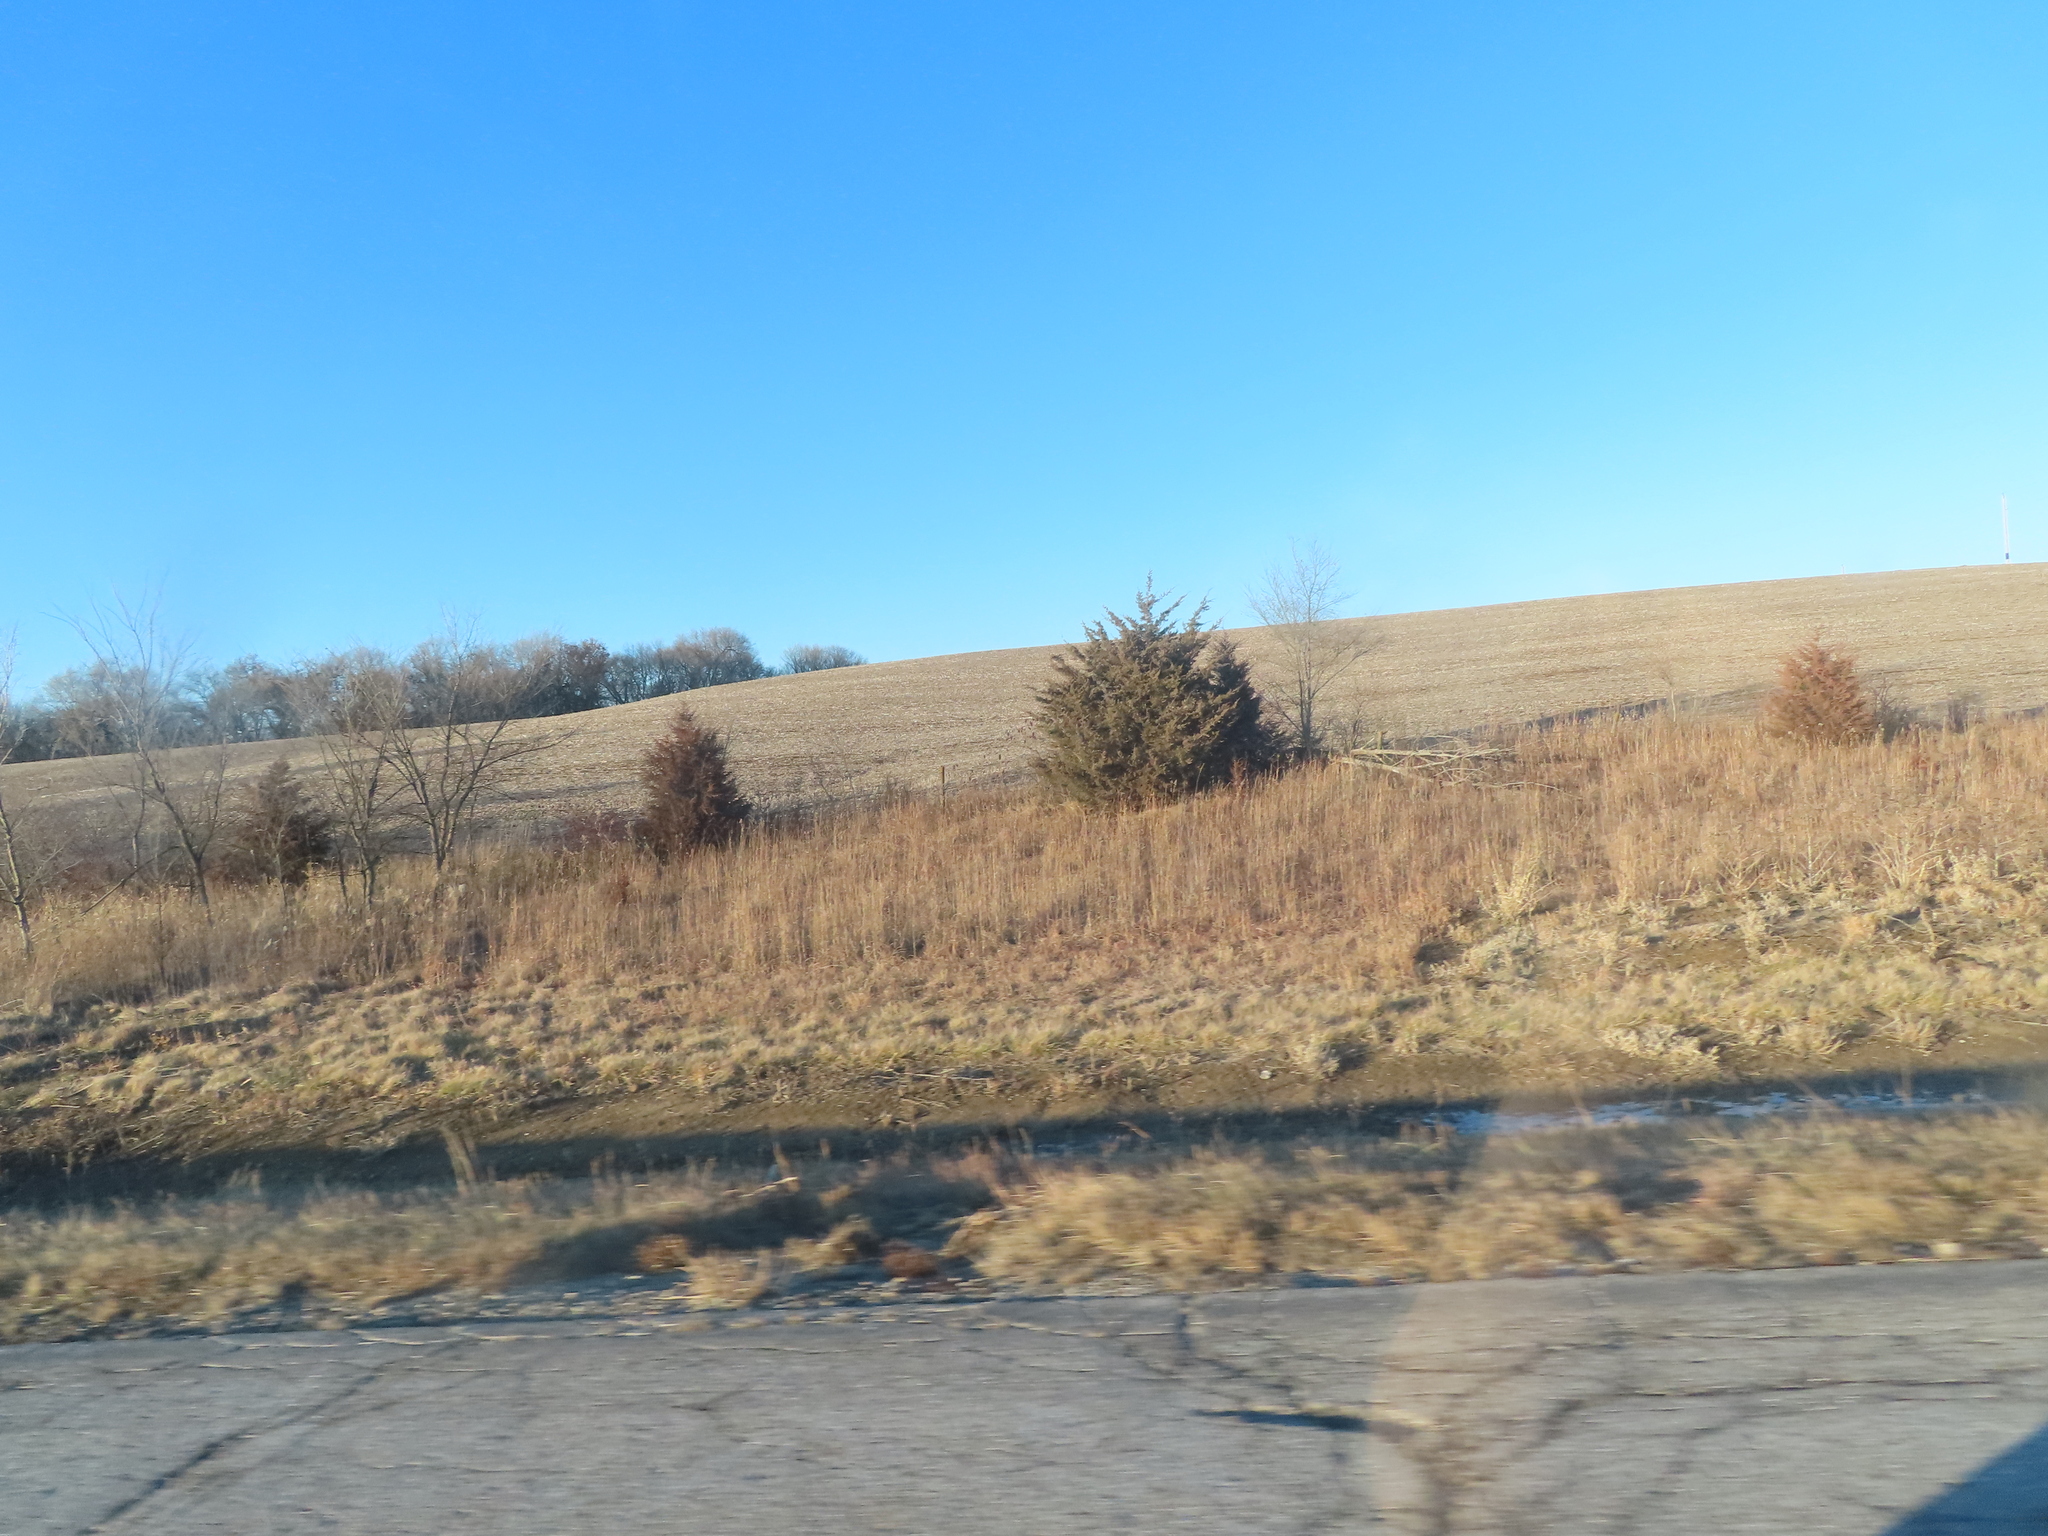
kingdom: Plantae
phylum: Tracheophyta
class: Pinopsida
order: Pinales
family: Cupressaceae
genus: Juniperus
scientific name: Juniperus virginiana
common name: Red juniper
